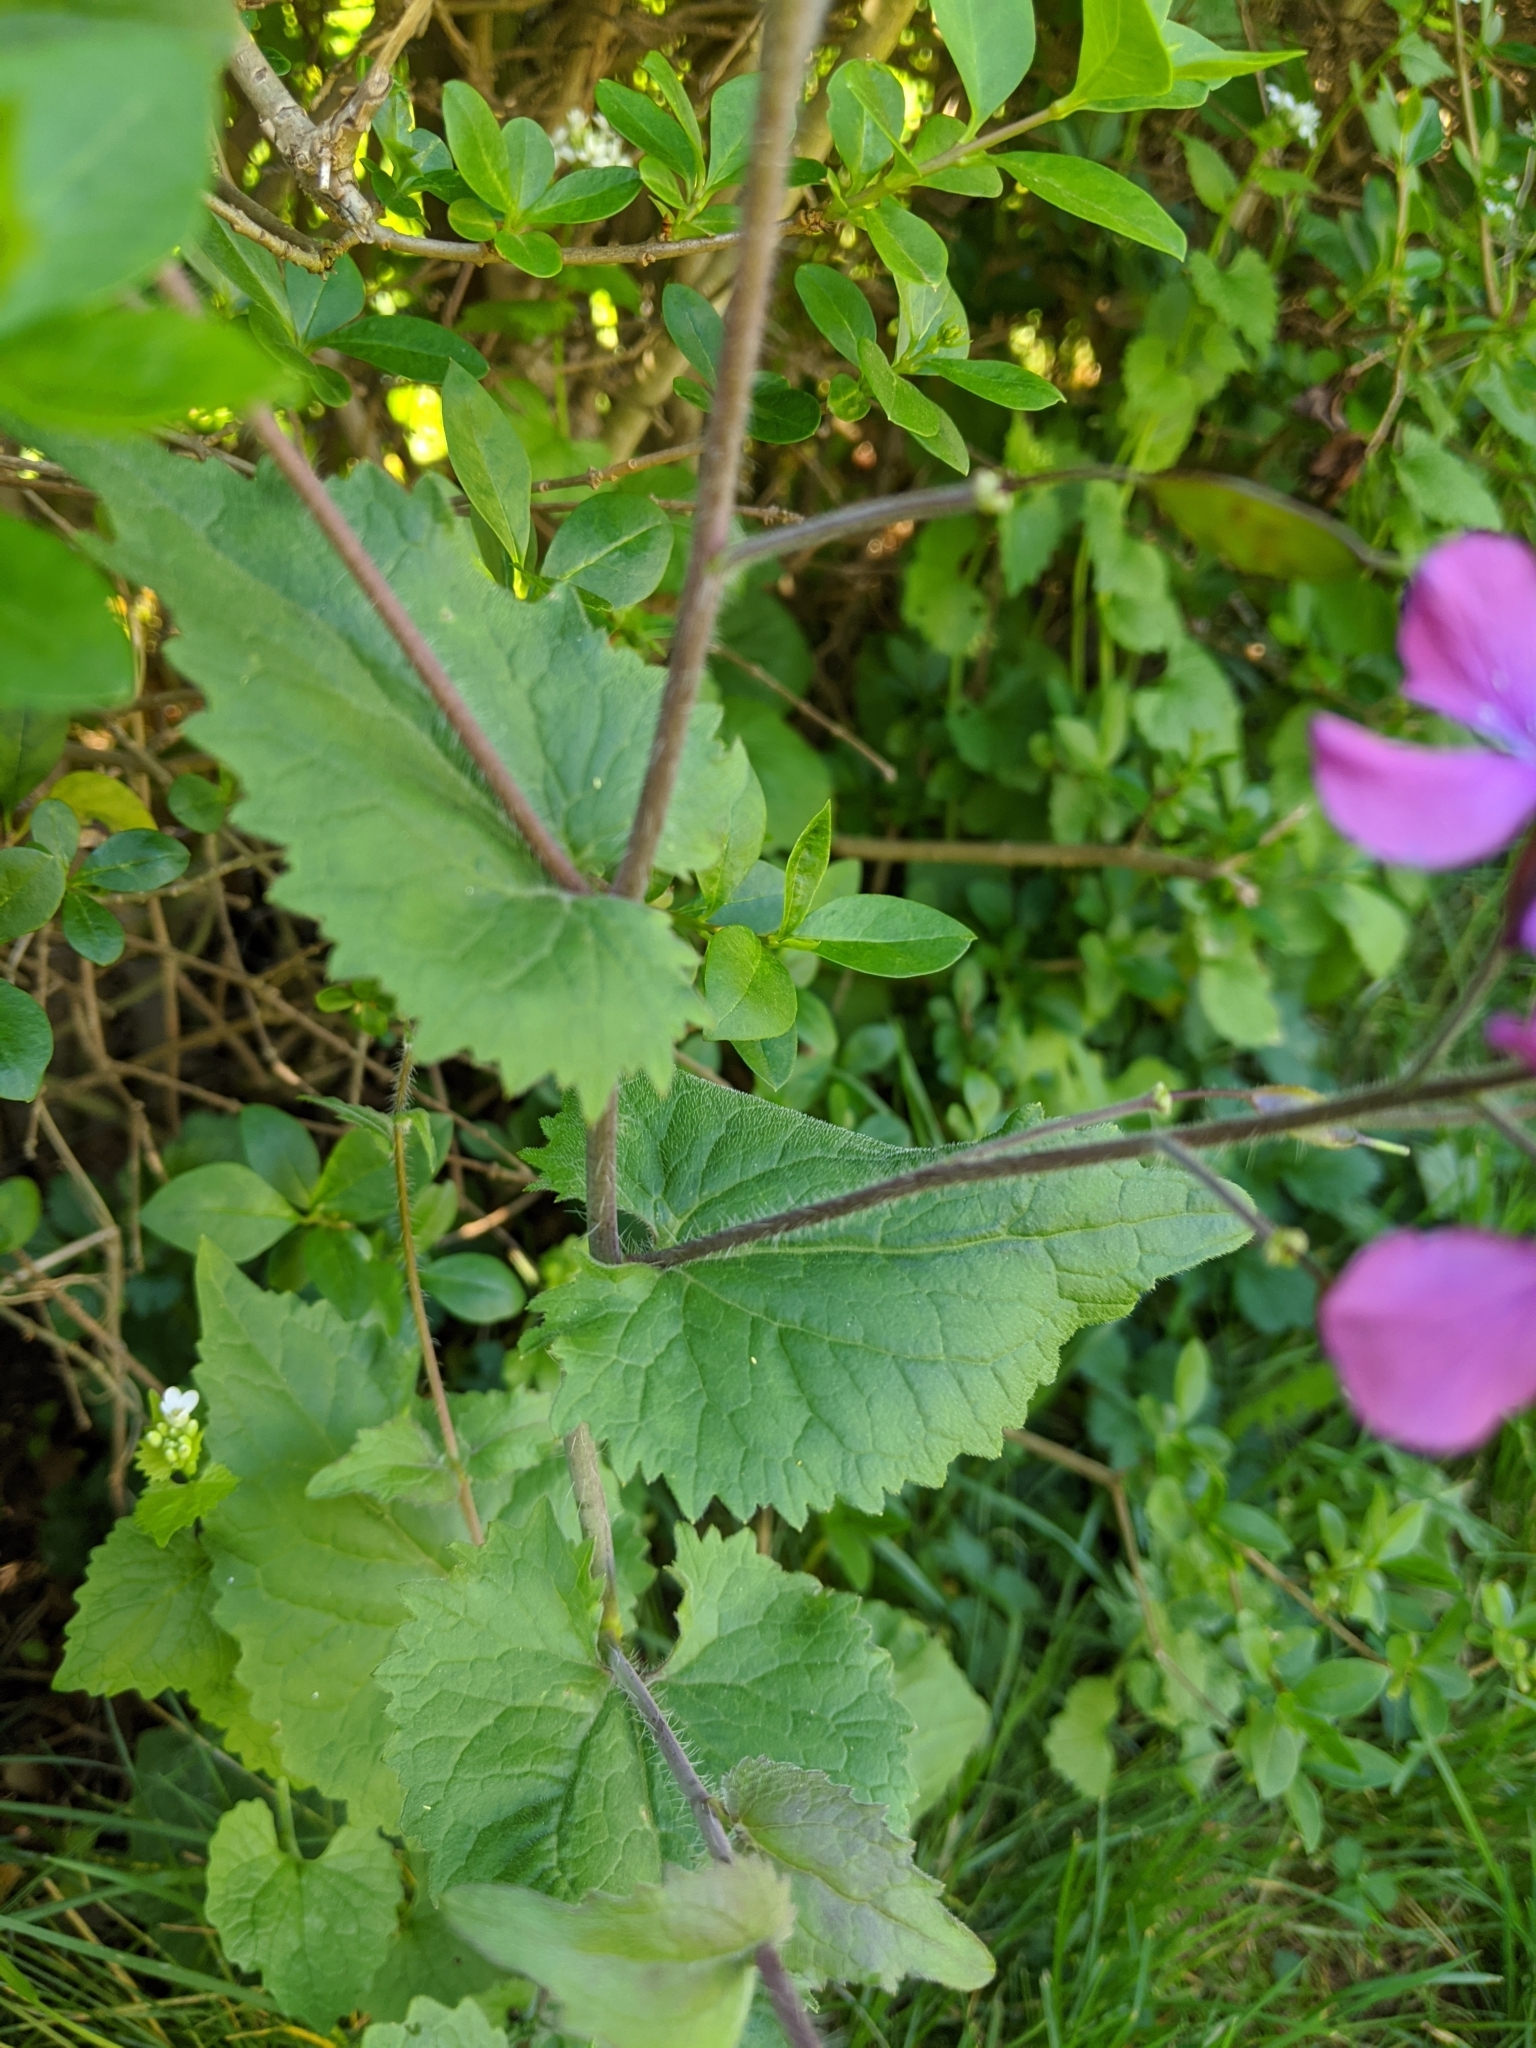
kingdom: Plantae
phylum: Tracheophyta
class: Magnoliopsida
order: Brassicales
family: Brassicaceae
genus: Lunaria
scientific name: Lunaria annua
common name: Honesty
